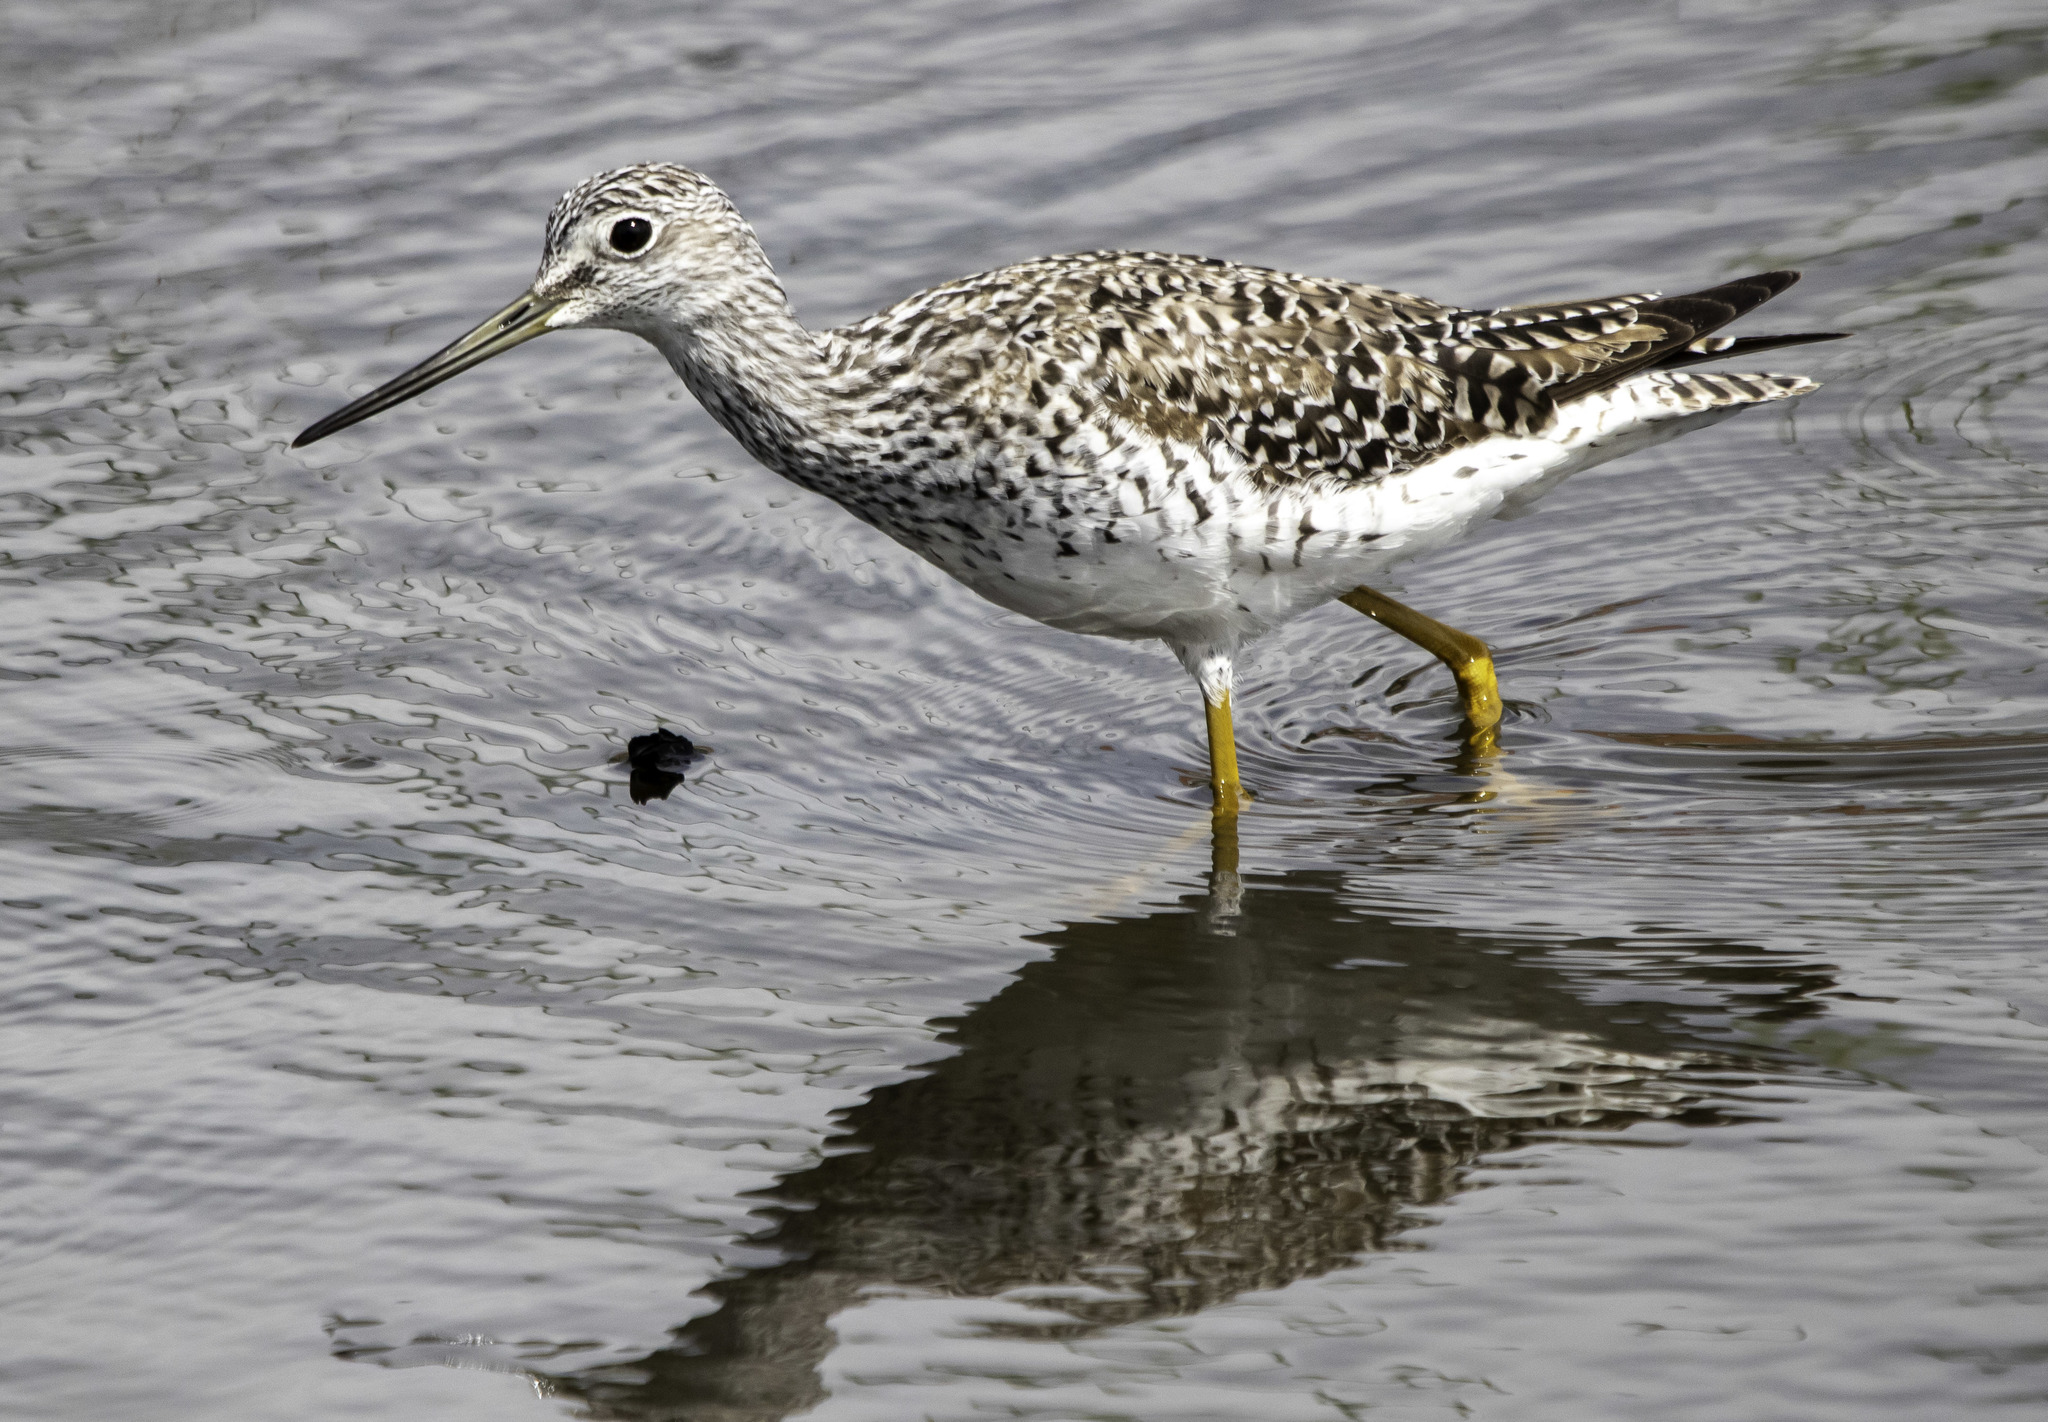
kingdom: Animalia
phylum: Chordata
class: Aves
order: Charadriiformes
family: Scolopacidae
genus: Tringa
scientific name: Tringa melanoleuca
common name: Greater yellowlegs
